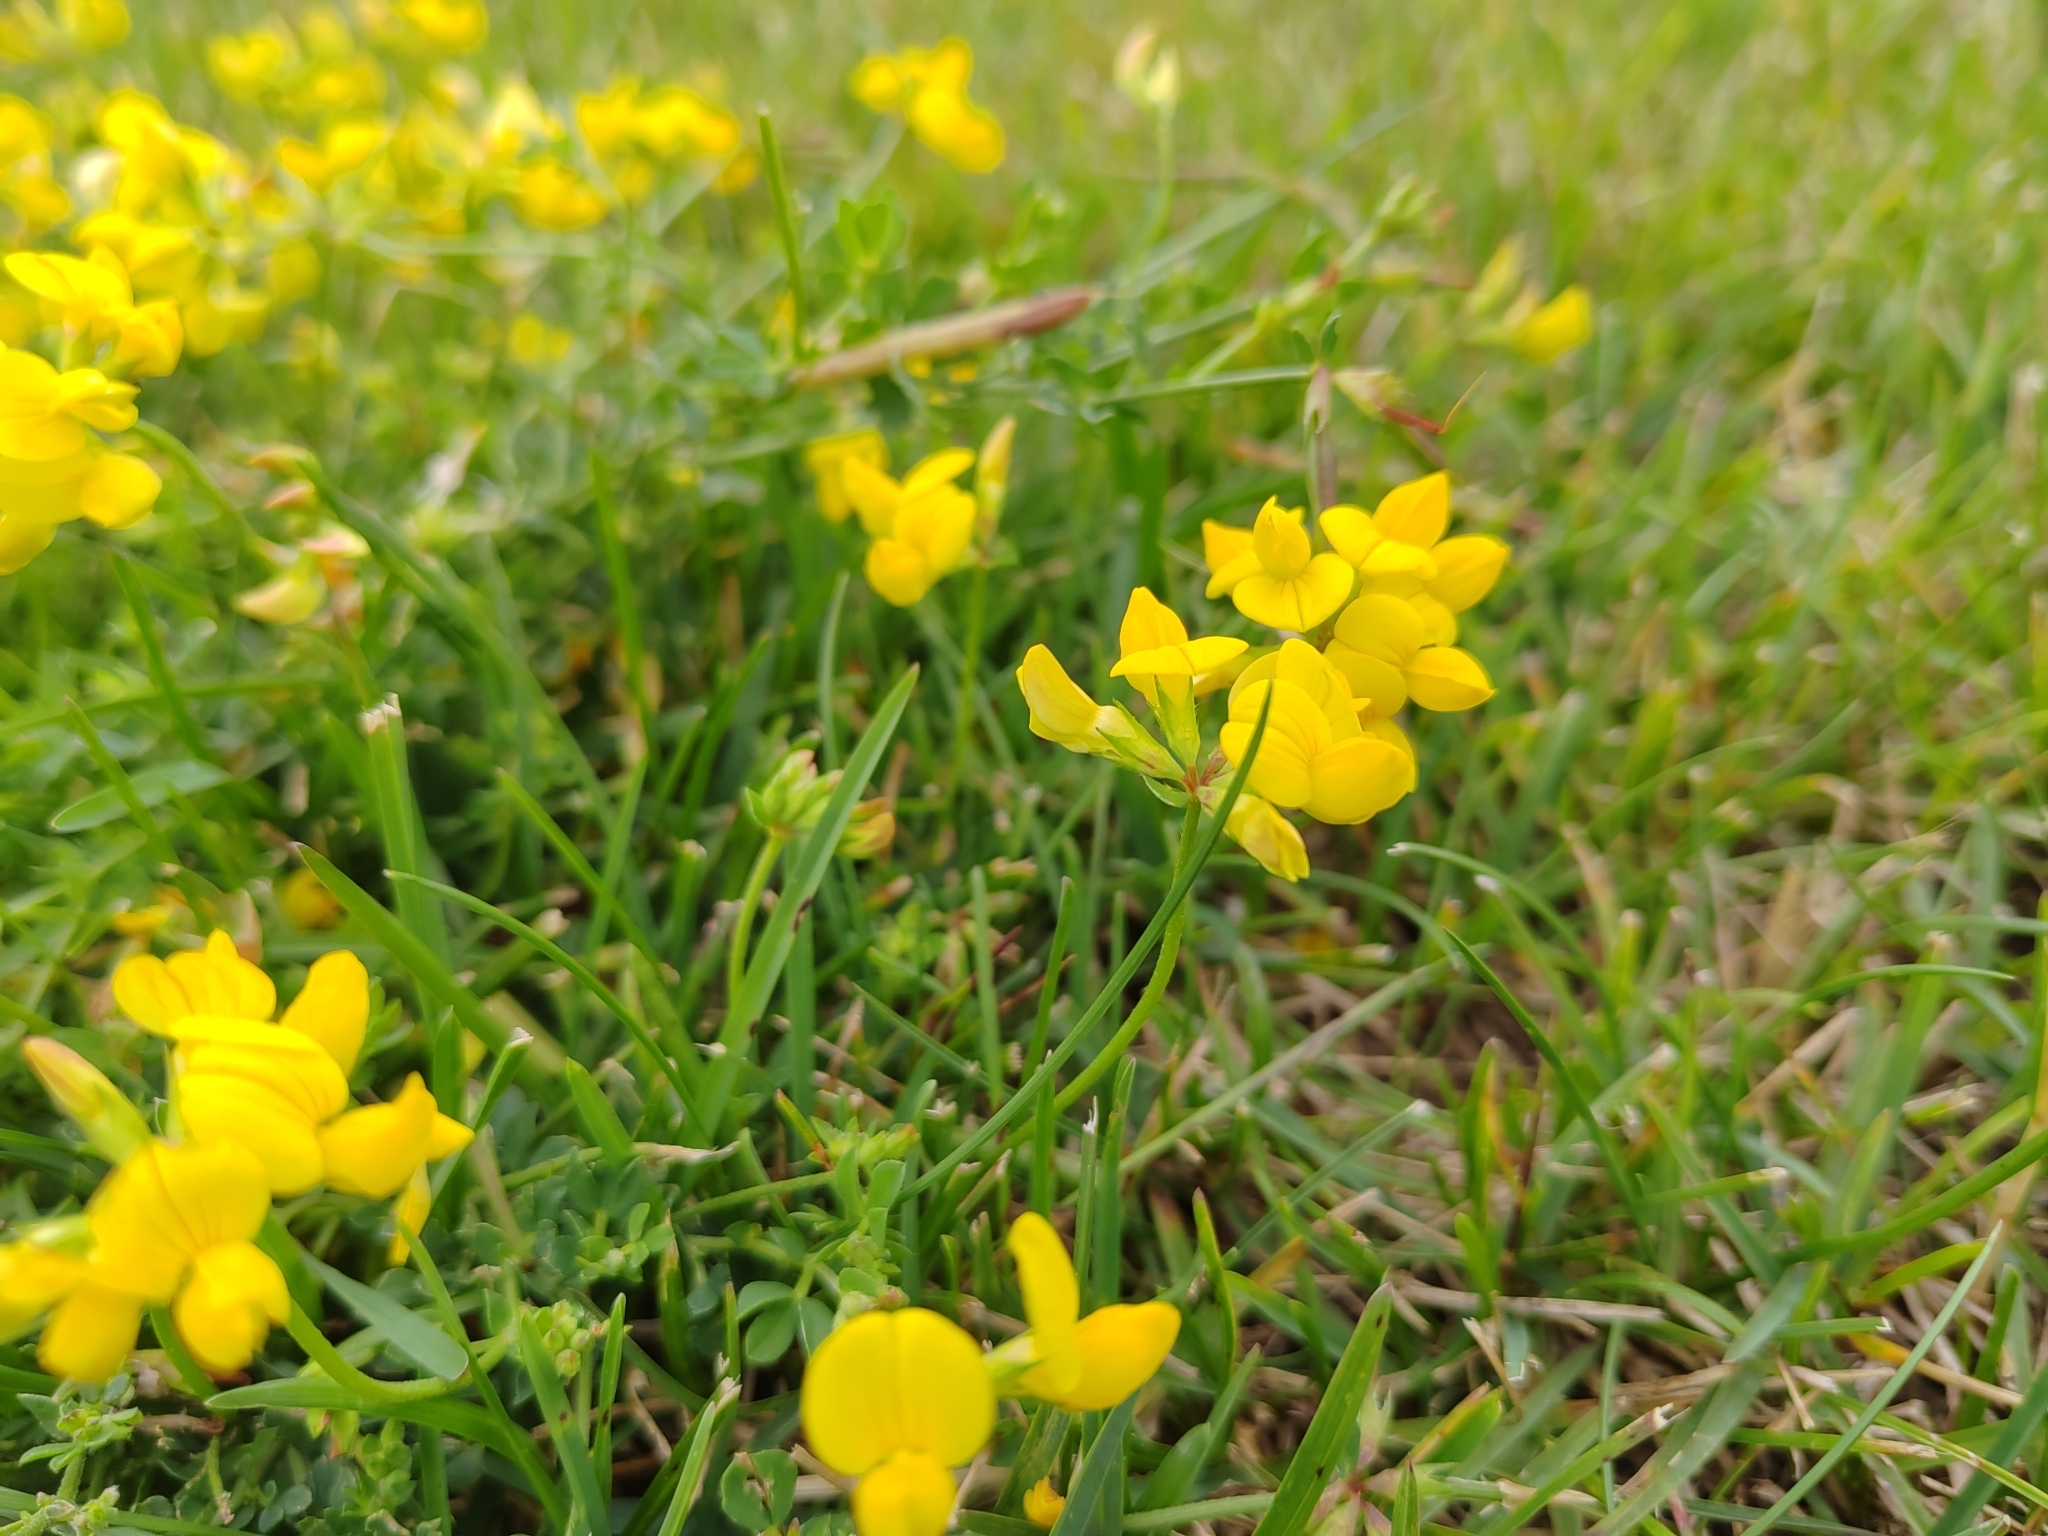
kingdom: Plantae
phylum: Tracheophyta
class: Magnoliopsida
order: Fabales
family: Fabaceae
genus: Lotus
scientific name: Lotus corniculatus
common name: Common bird's-foot-trefoil
